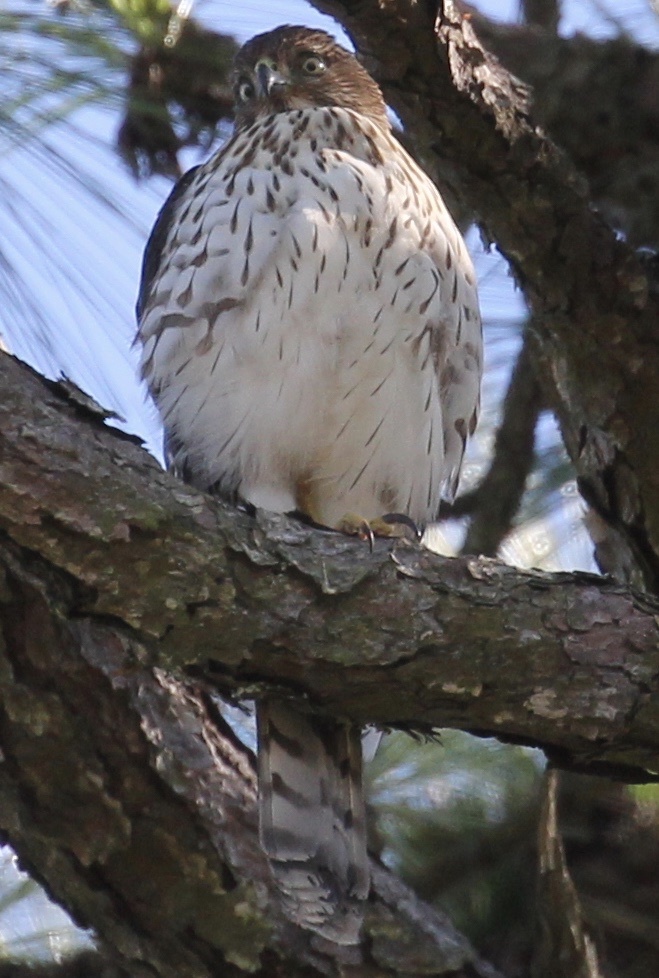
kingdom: Animalia
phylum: Chordata
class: Aves
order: Accipitriformes
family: Accipitridae
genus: Accipiter
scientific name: Accipiter cooperii
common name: Cooper's hawk
